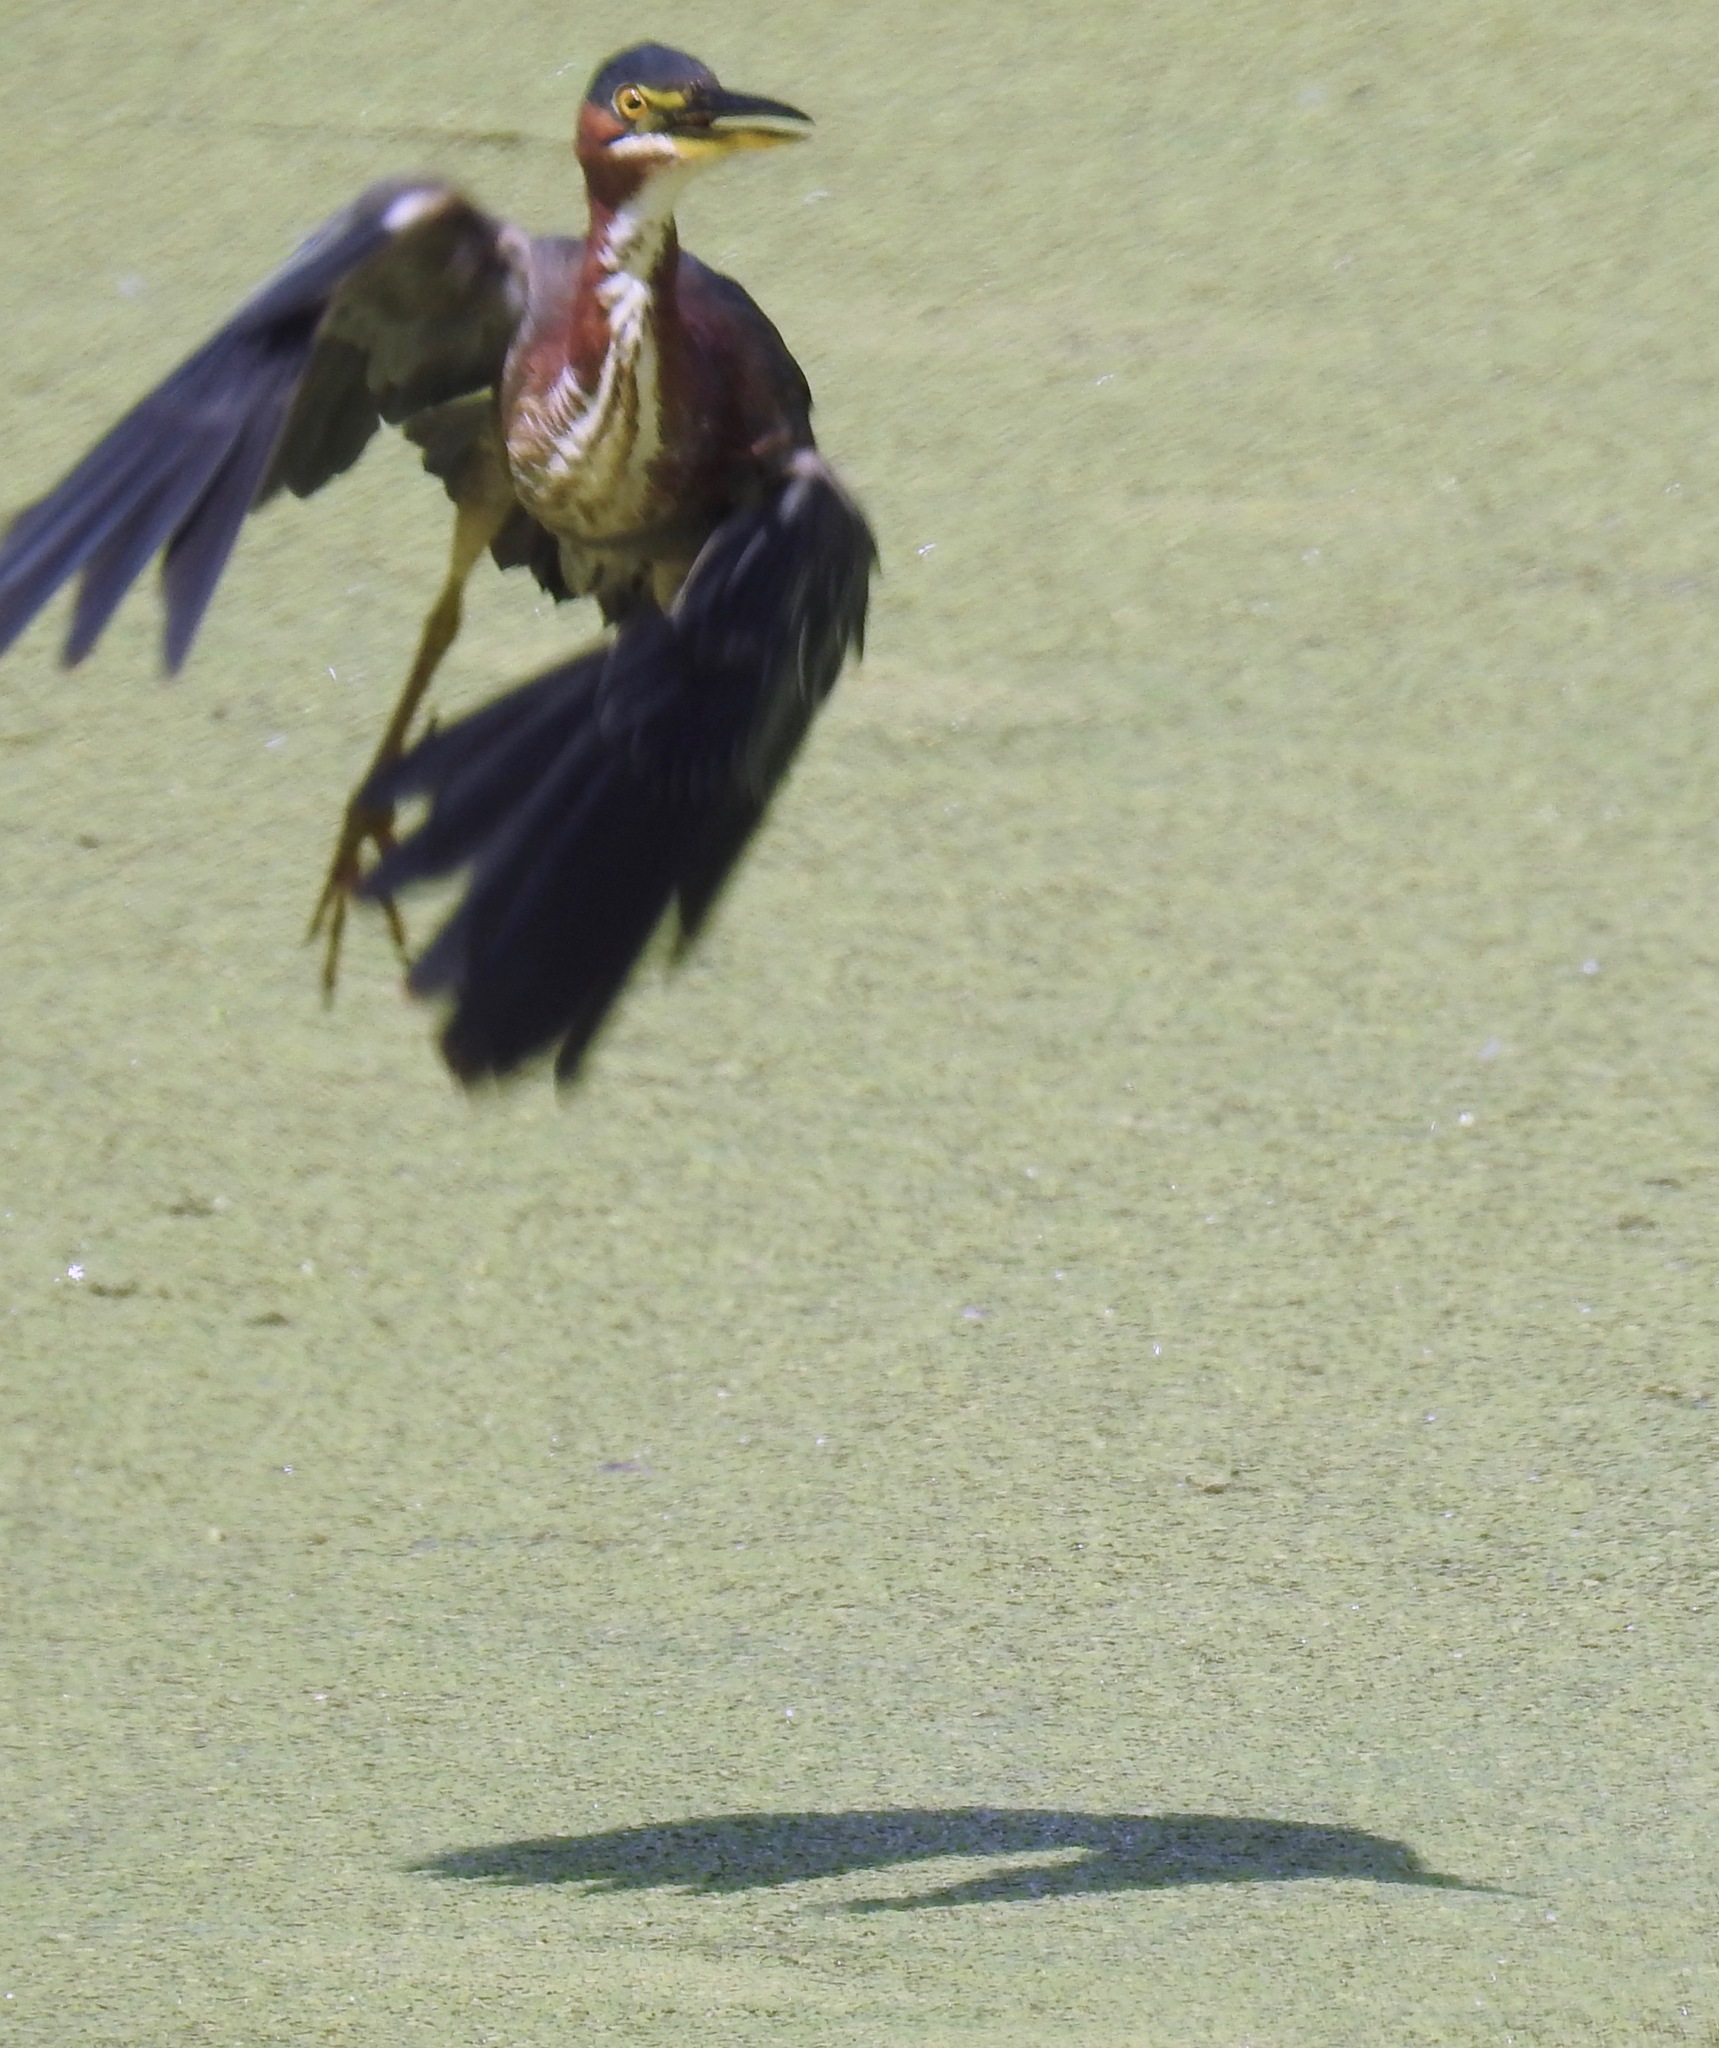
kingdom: Animalia
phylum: Chordata
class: Aves
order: Pelecaniformes
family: Ardeidae
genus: Butorides
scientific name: Butorides virescens
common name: Green heron
